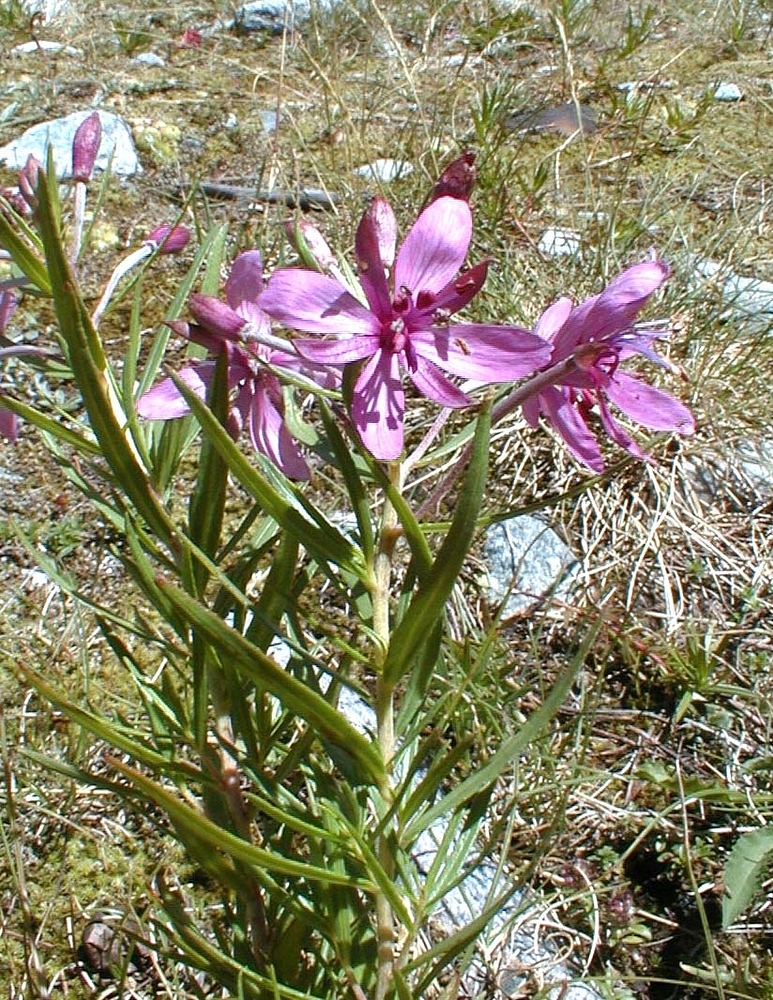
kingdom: Plantae
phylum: Tracheophyta
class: Magnoliopsida
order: Myrtales
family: Onagraceae
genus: Chamaenerion
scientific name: Chamaenerion fleischeri
